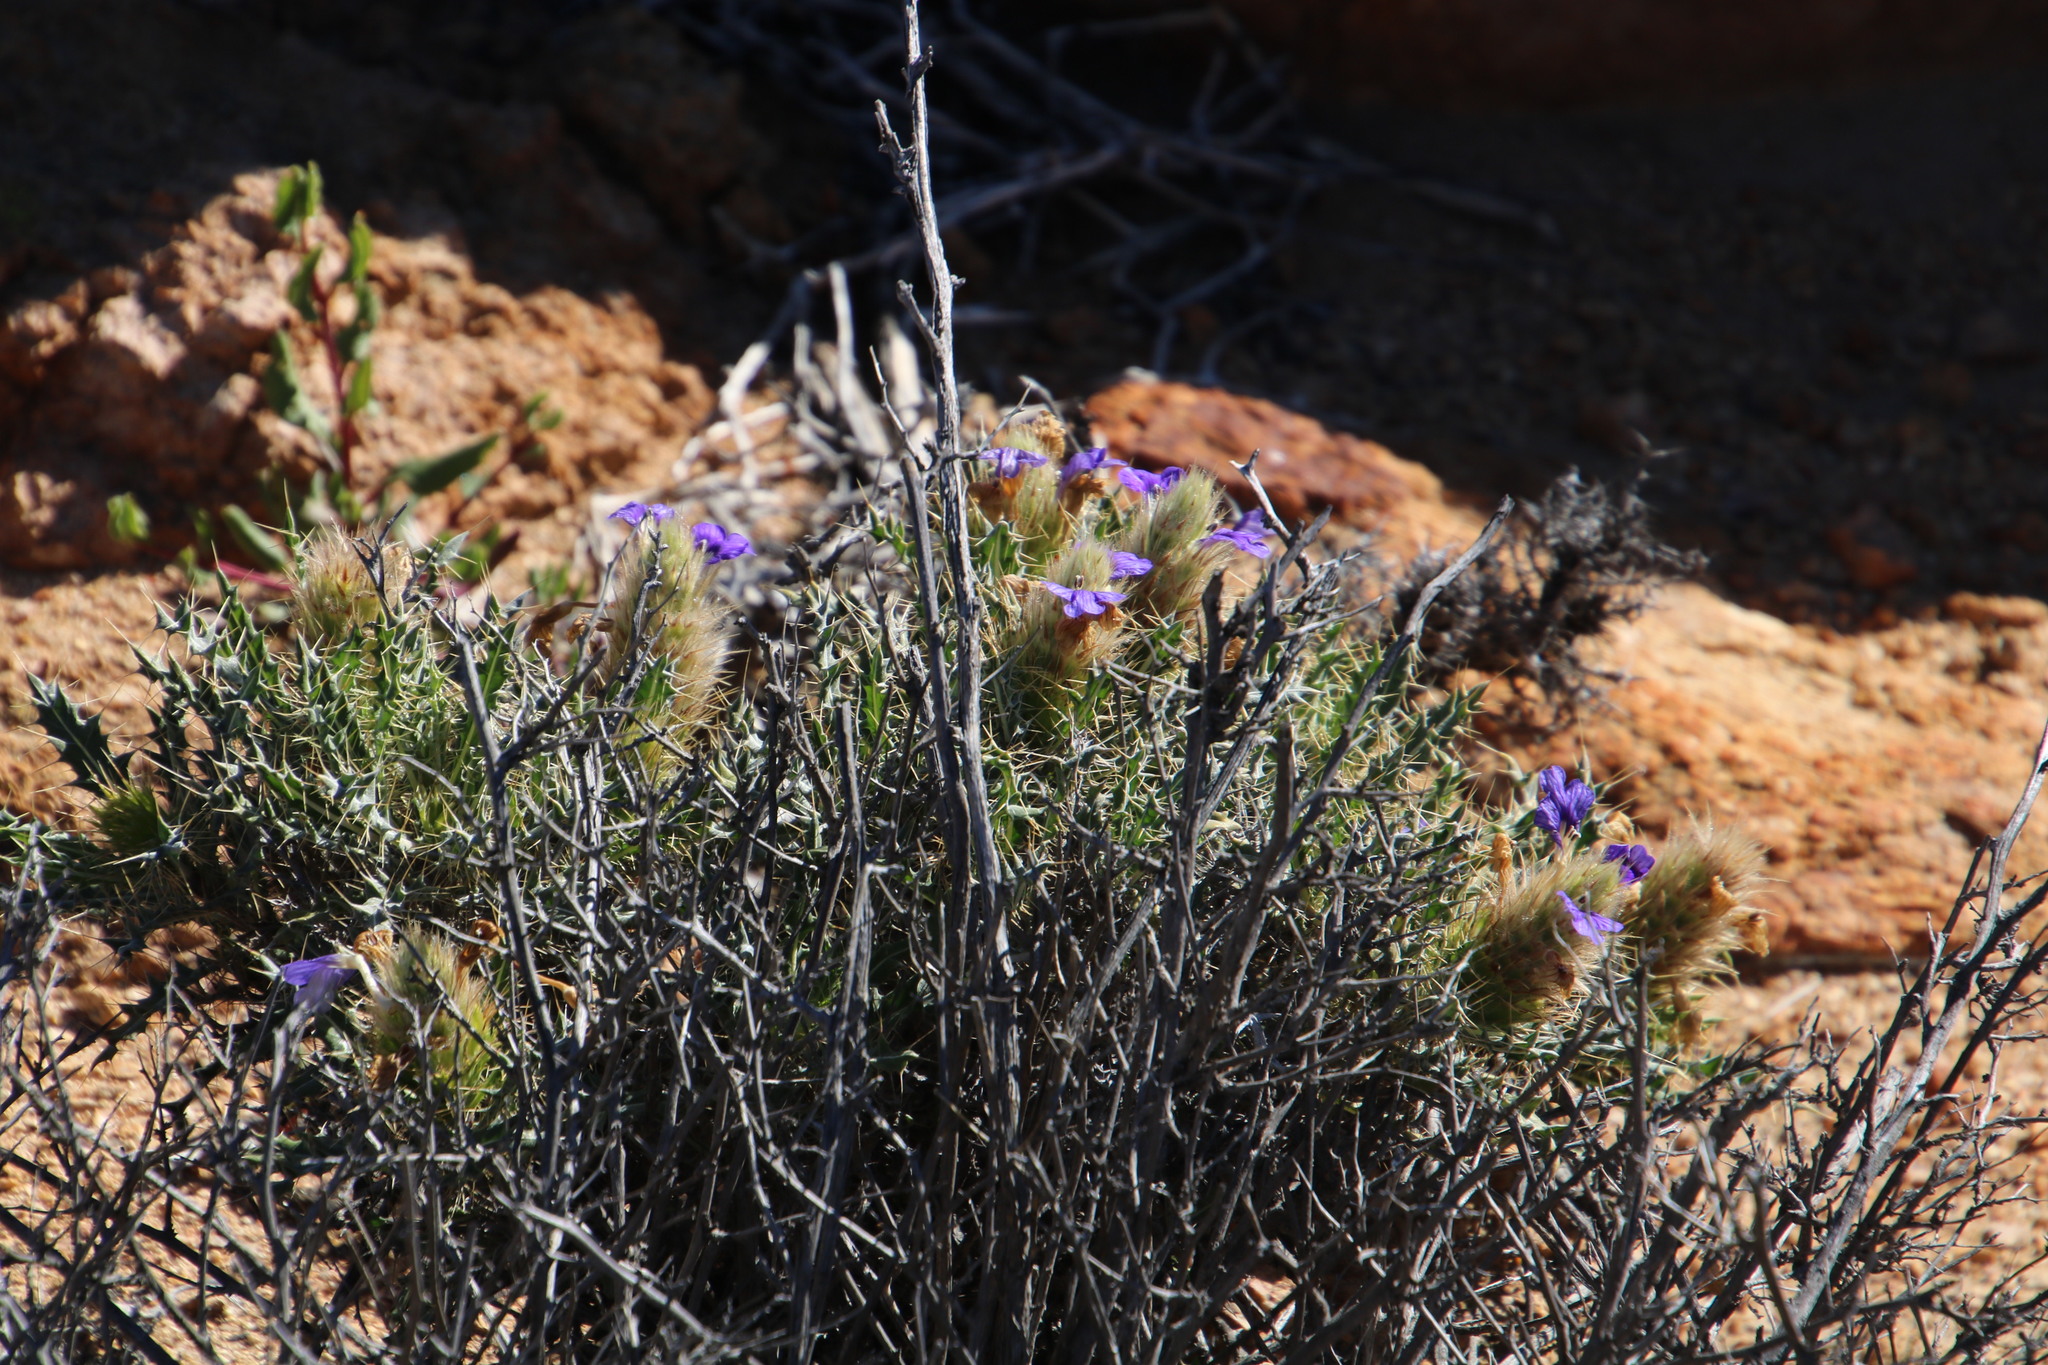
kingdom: Plantae
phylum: Tracheophyta
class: Magnoliopsida
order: Lamiales
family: Acanthaceae
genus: Acanthopsis
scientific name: Acanthopsis horrida
